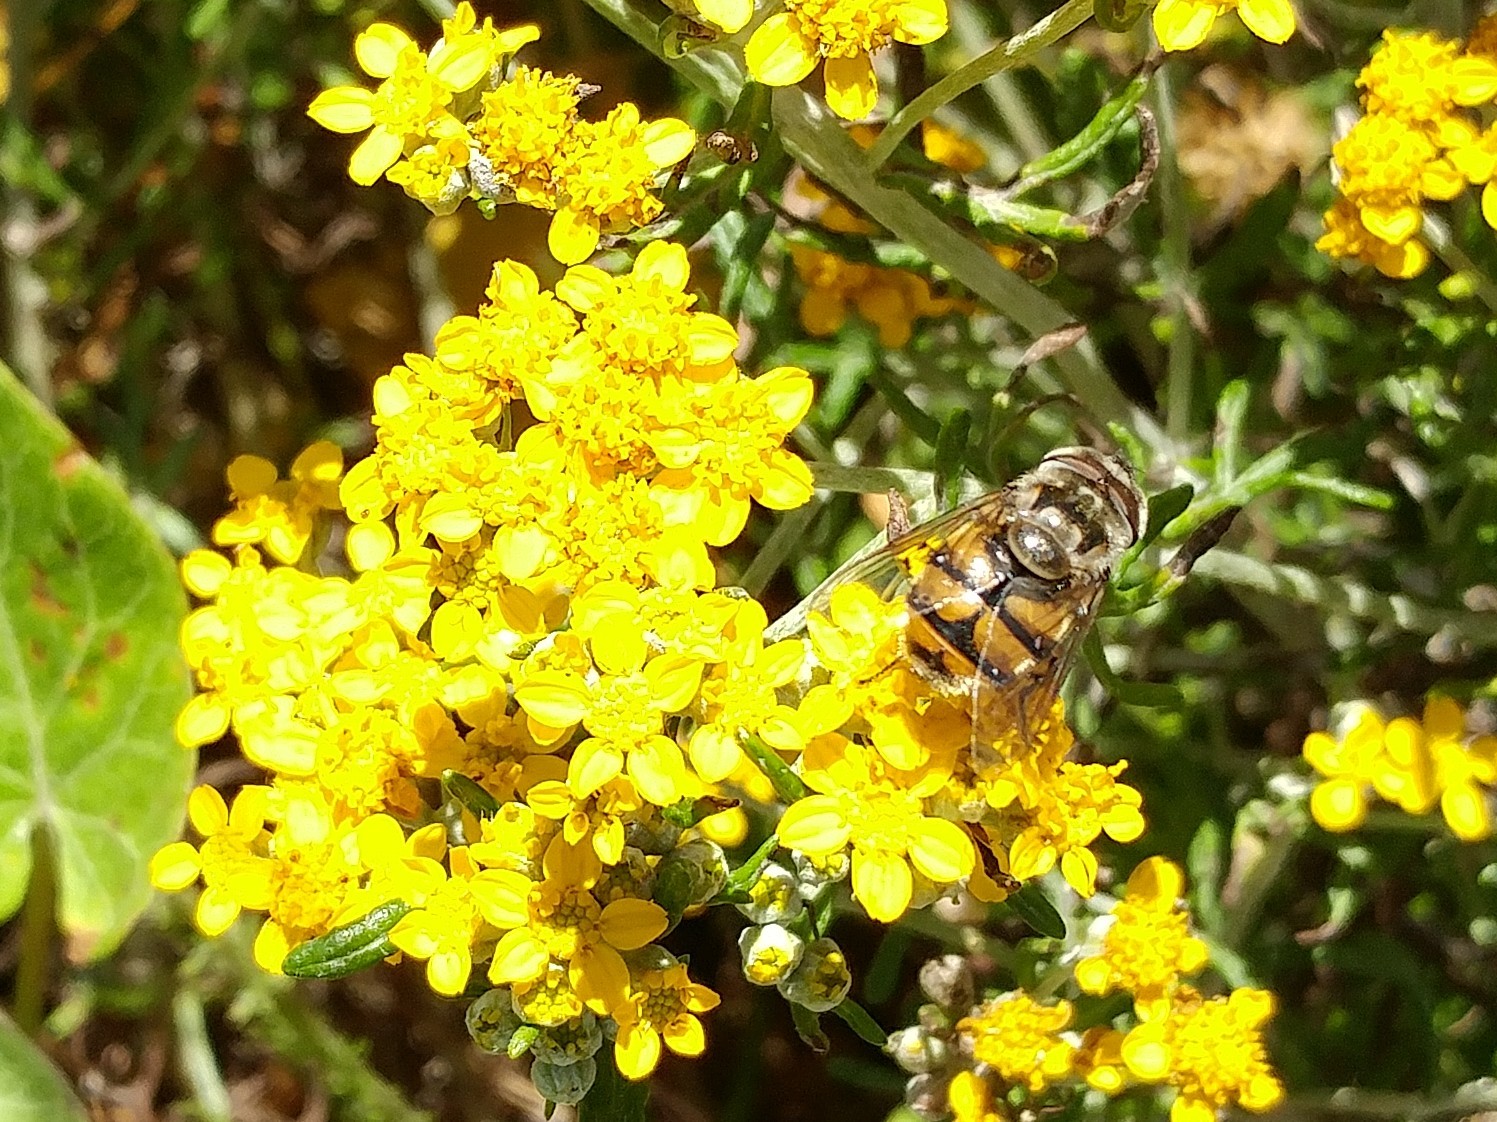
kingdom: Animalia
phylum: Arthropoda
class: Insecta
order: Diptera
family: Syrphidae
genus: Copestylum
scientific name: Copestylum avidum
